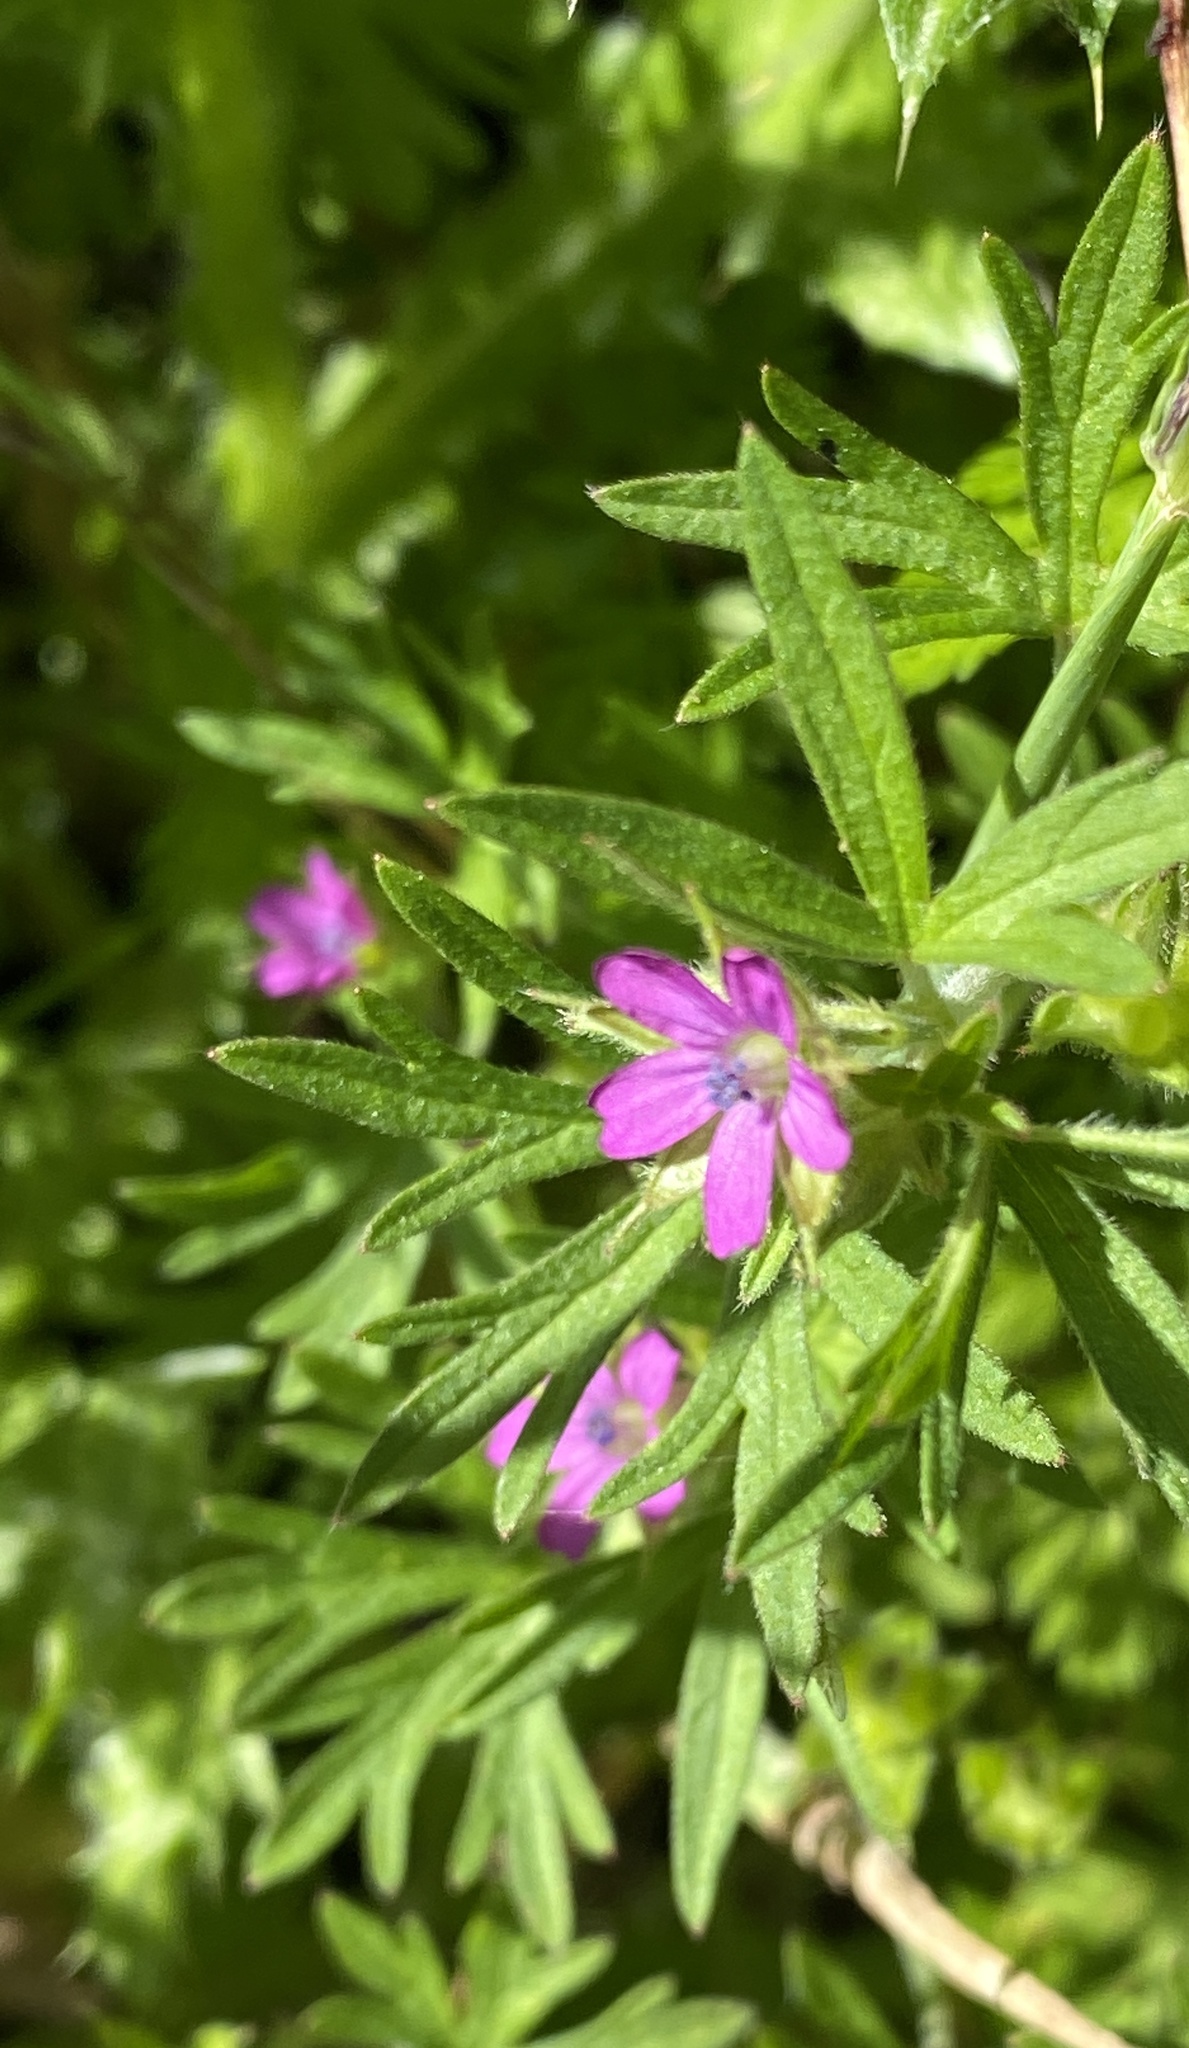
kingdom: Plantae
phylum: Tracheophyta
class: Magnoliopsida
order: Geraniales
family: Geraniaceae
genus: Geranium
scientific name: Geranium dissectum
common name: Cut-leaved crane's-bill
